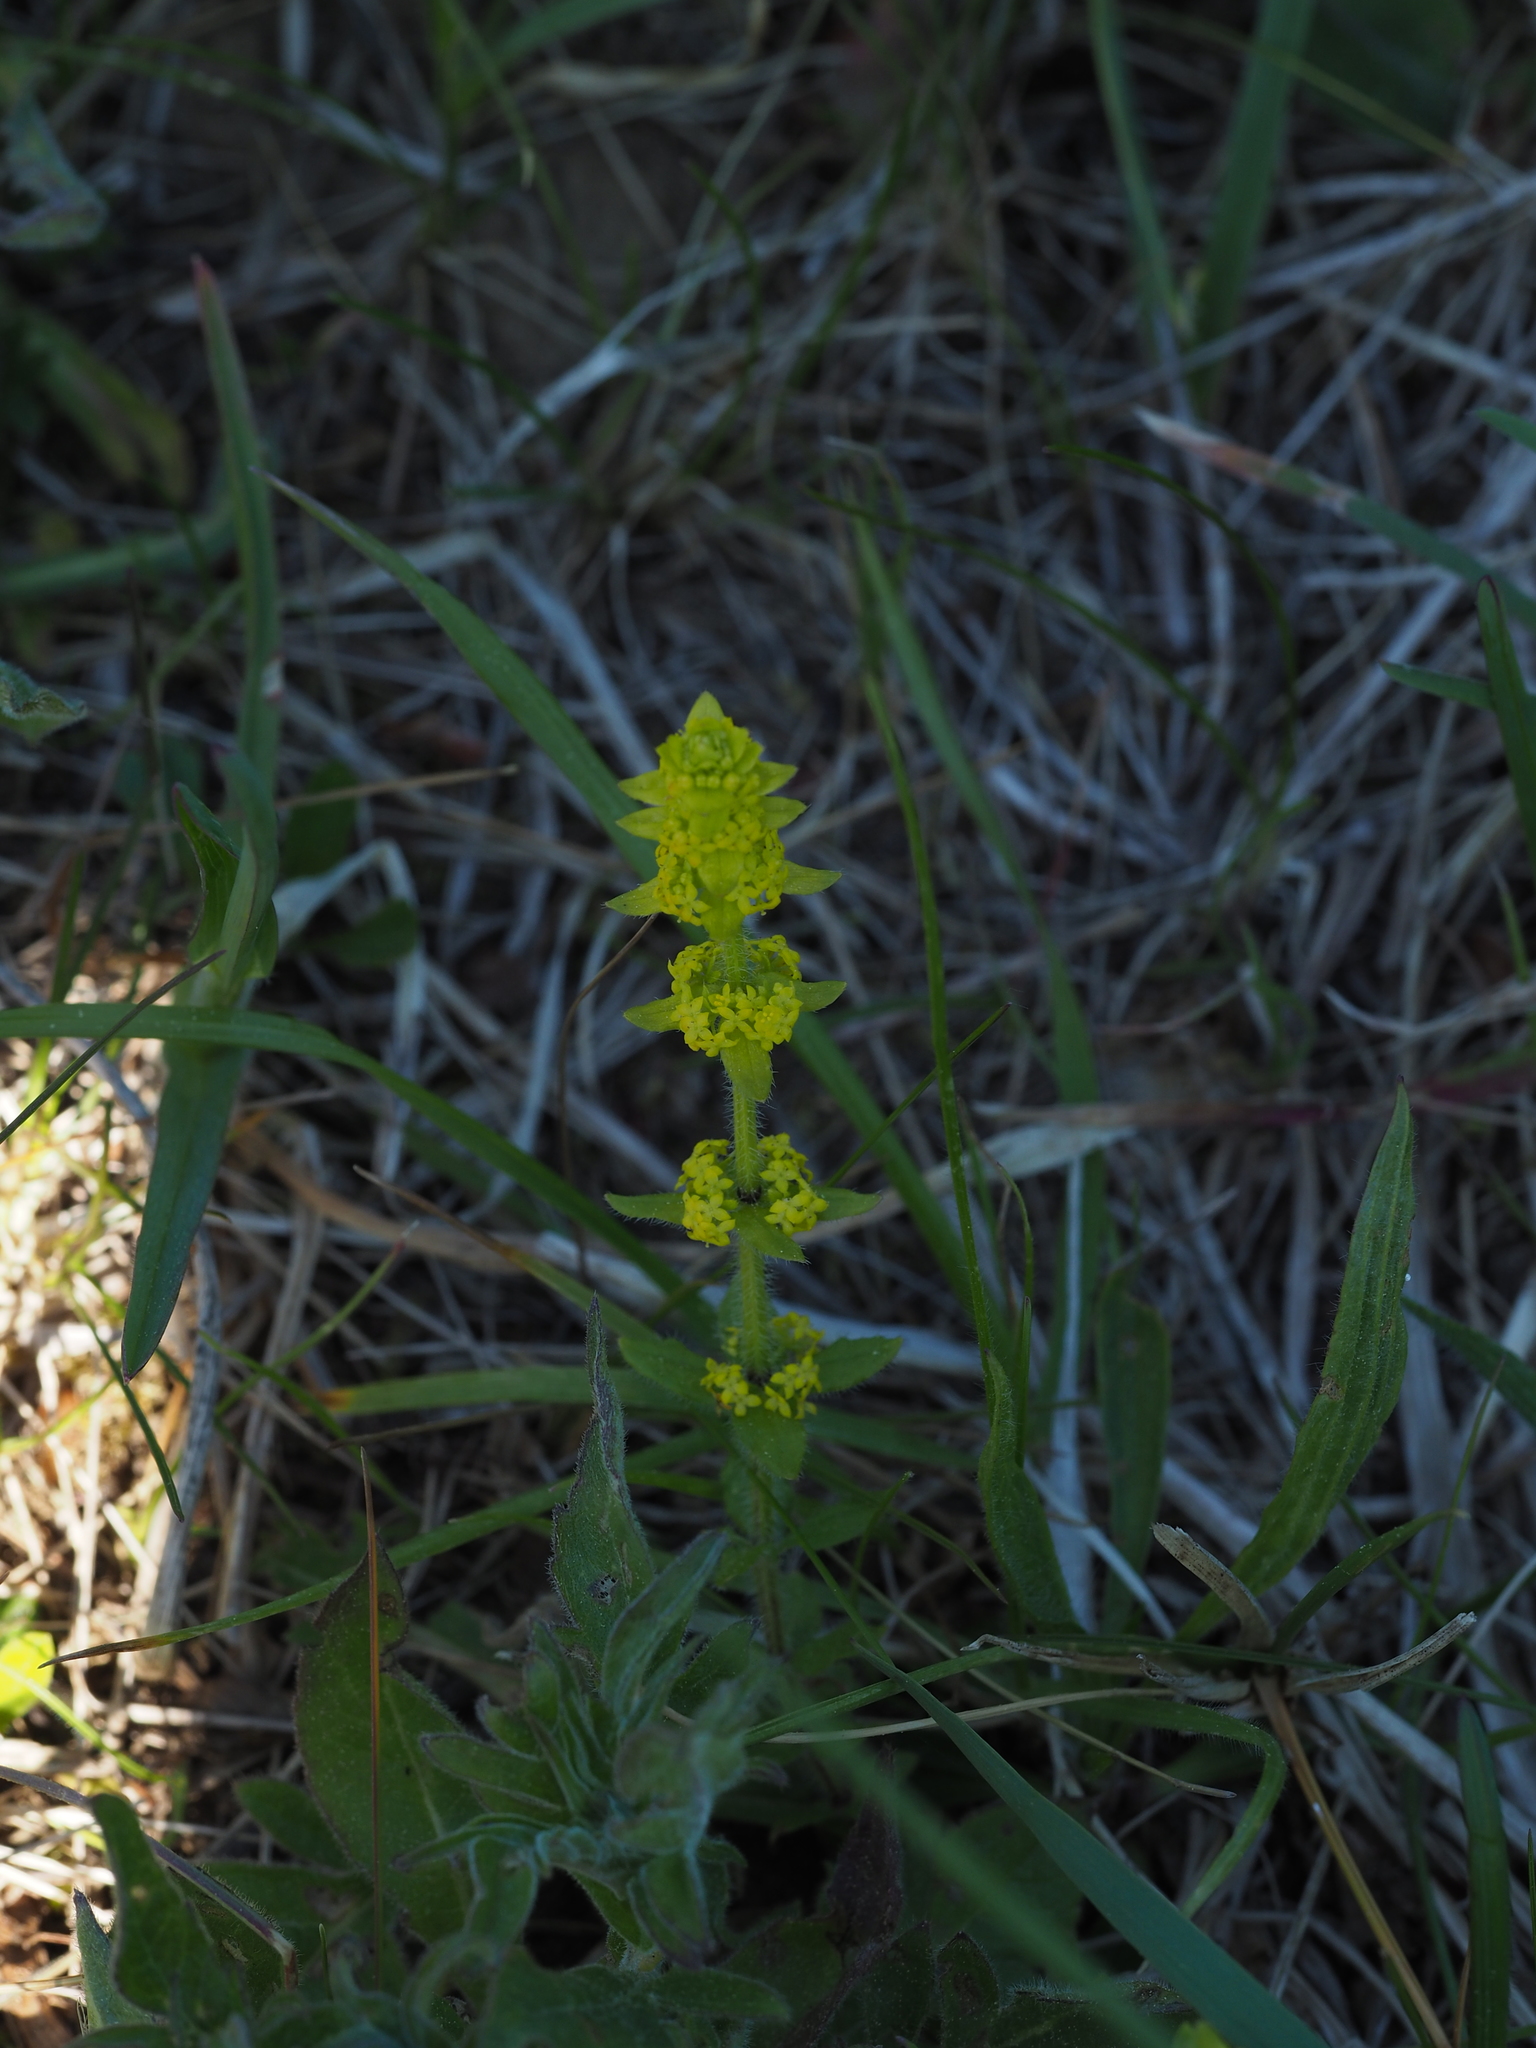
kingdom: Plantae
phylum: Tracheophyta
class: Magnoliopsida
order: Gentianales
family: Rubiaceae
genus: Cruciata
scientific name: Cruciata laevipes
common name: Crosswort
